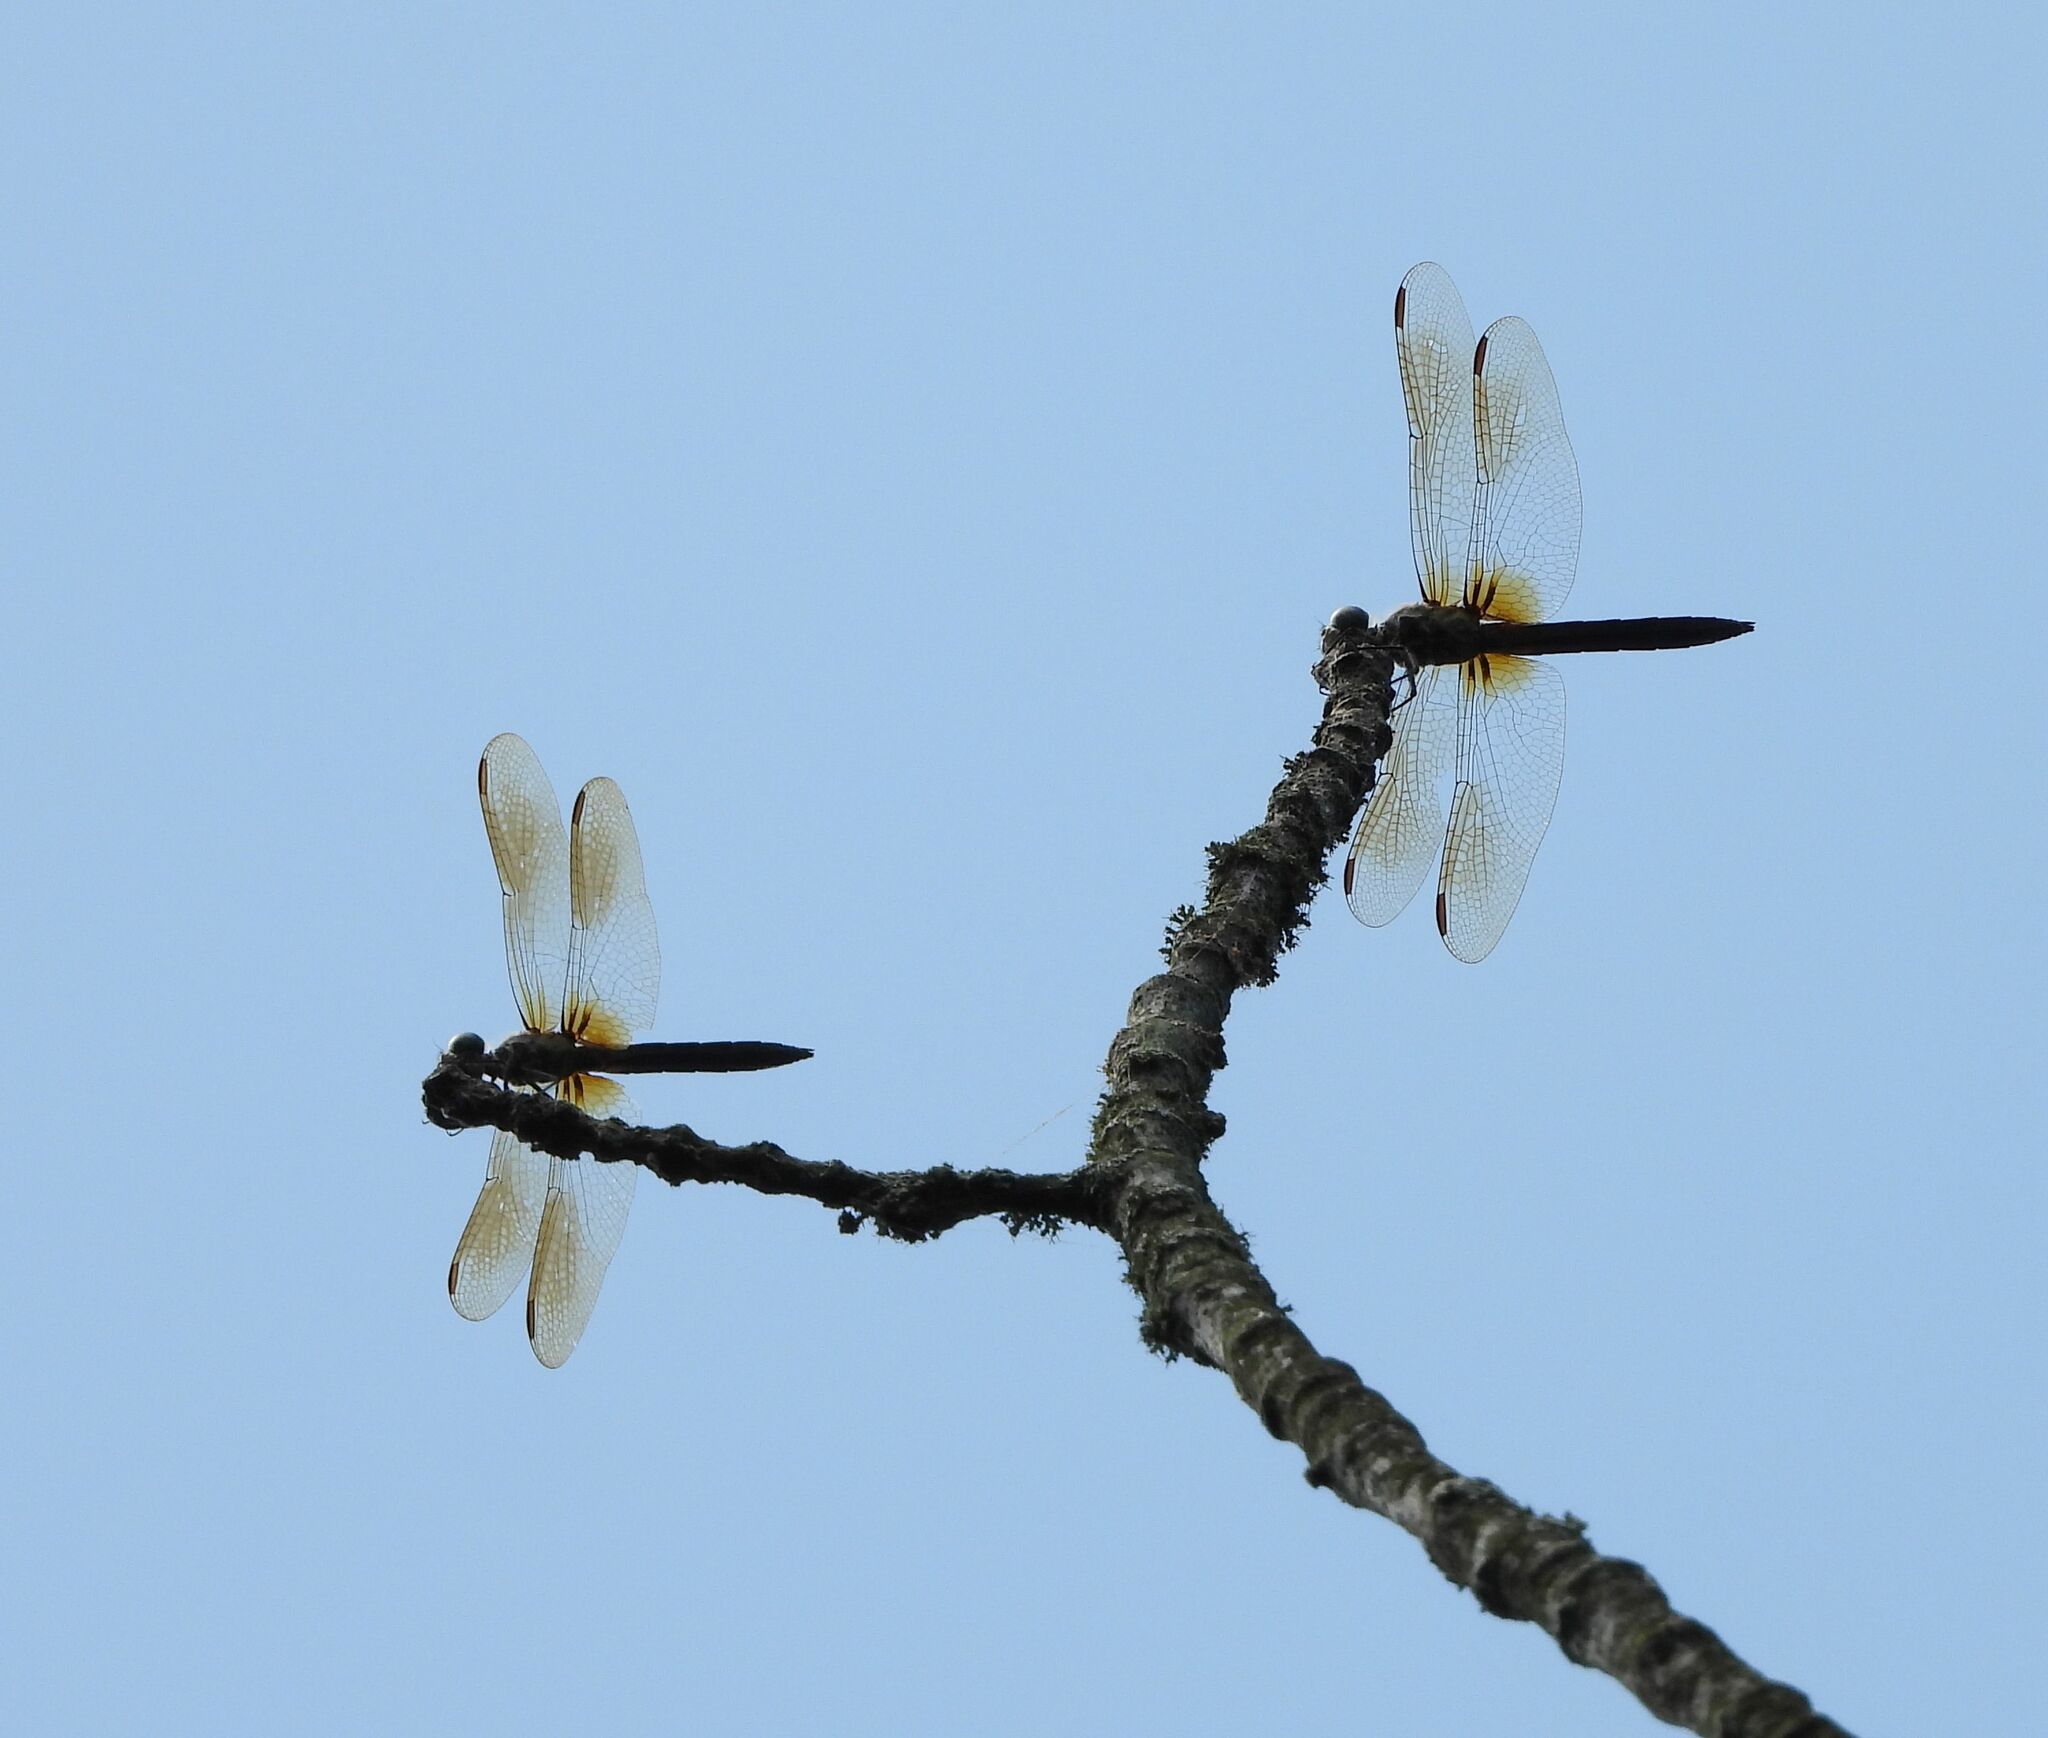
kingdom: Animalia
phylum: Arthropoda
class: Insecta
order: Odonata
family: Libellulidae
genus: Pachydiplax
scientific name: Pachydiplax longipennis
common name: Blue dasher
